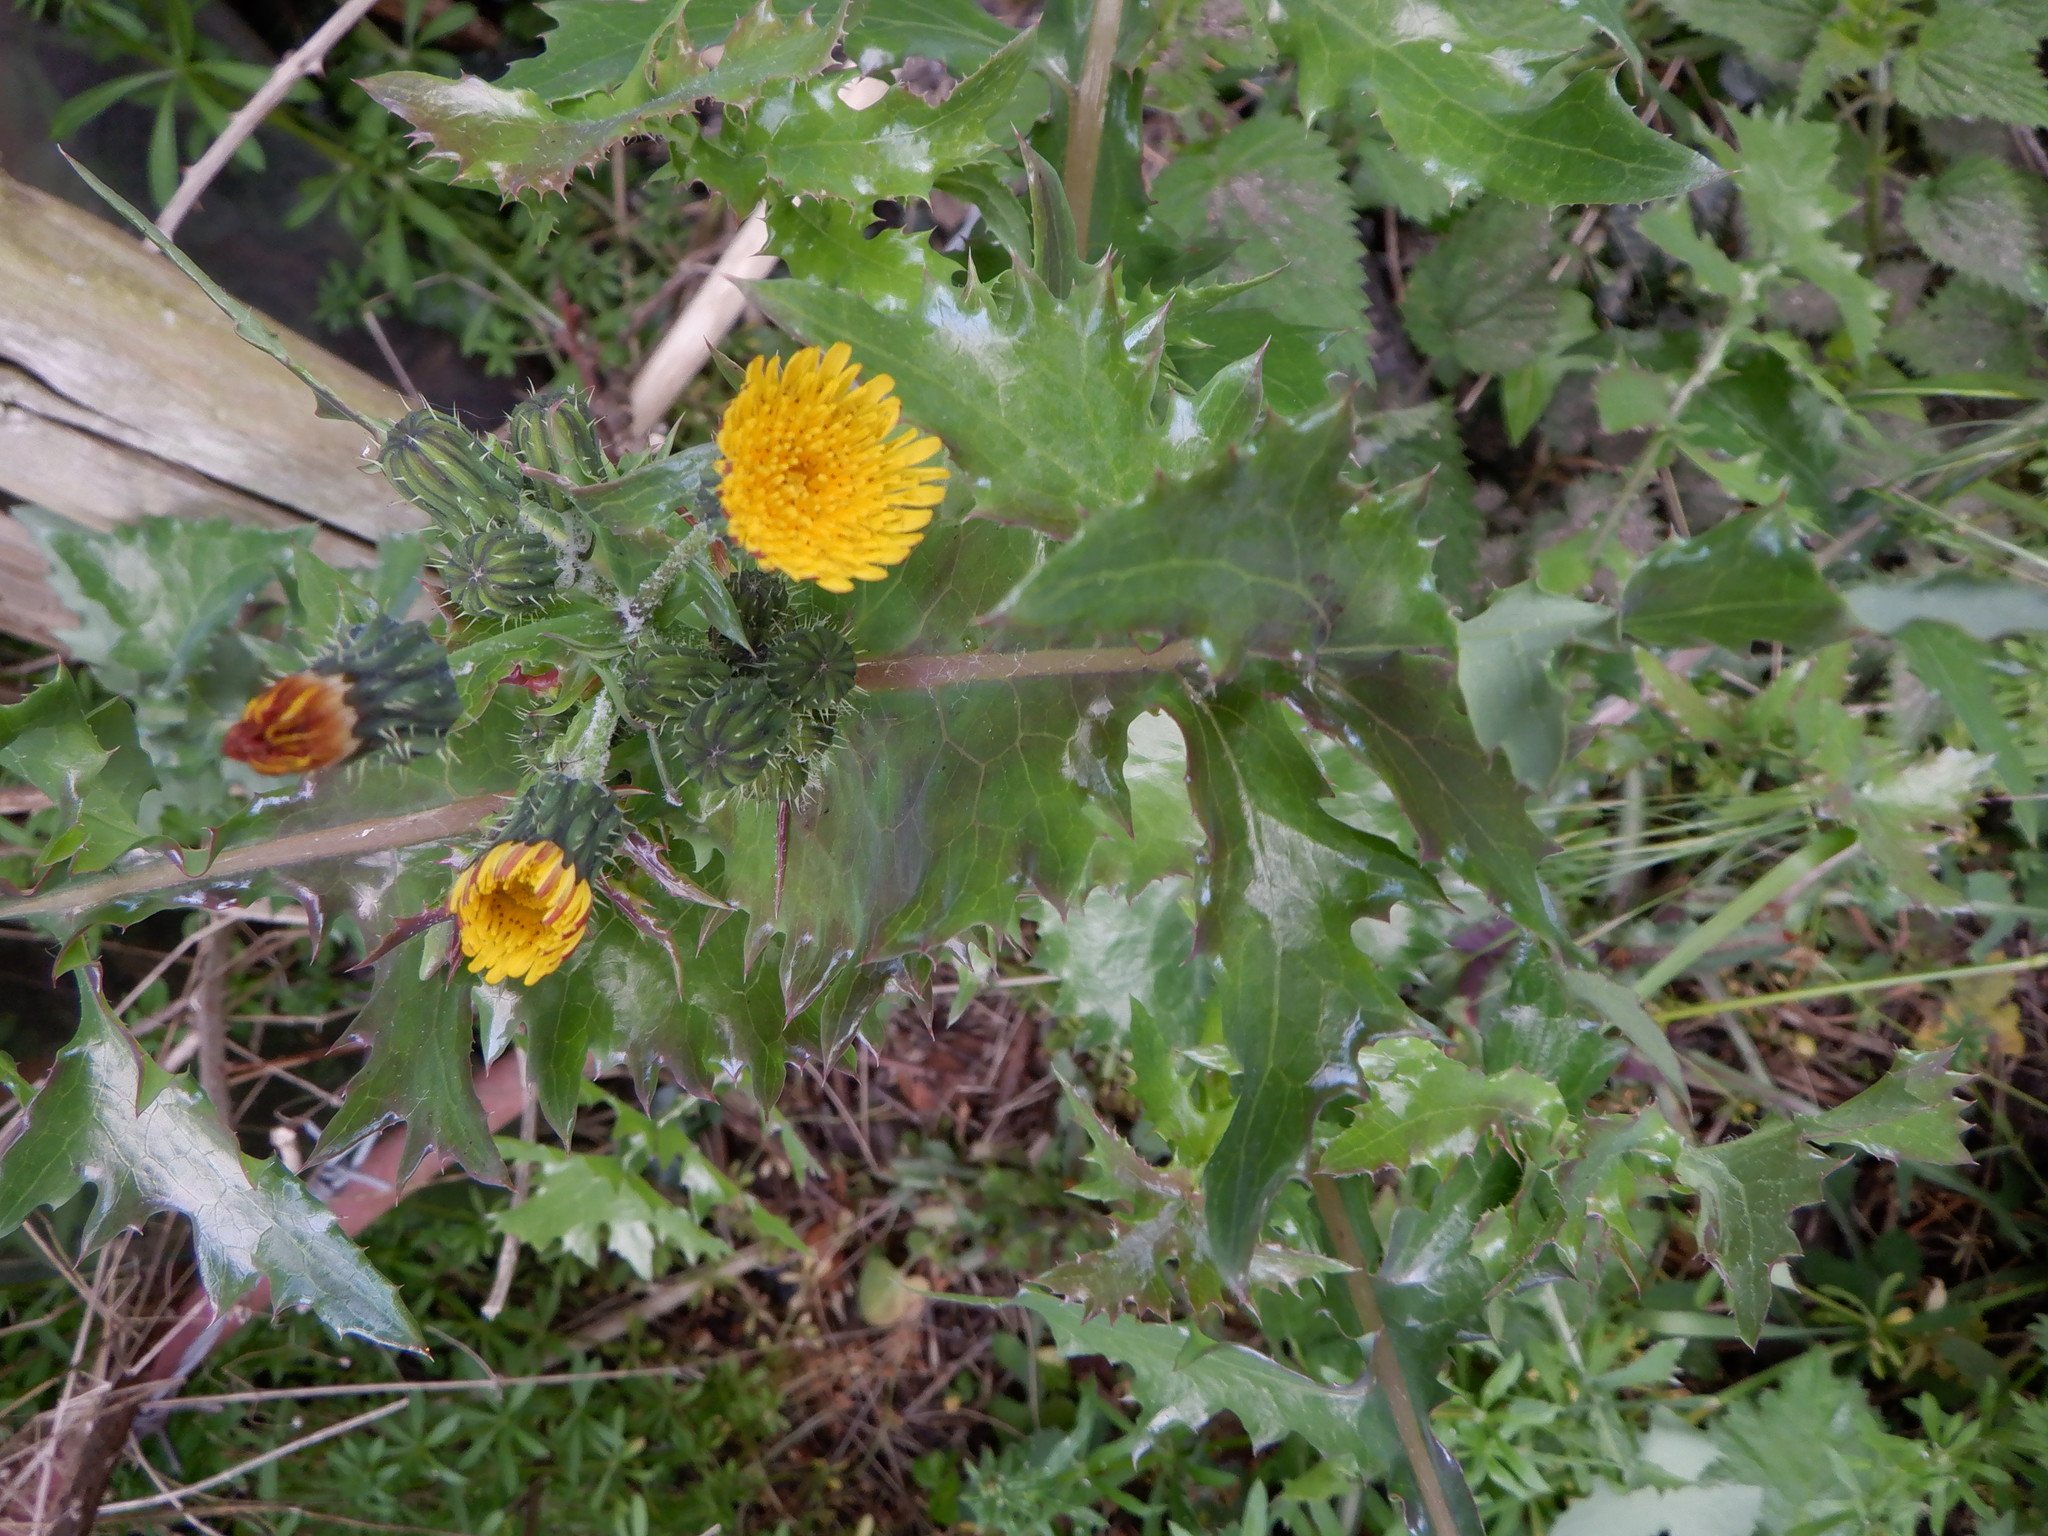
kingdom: Plantae
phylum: Tracheophyta
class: Magnoliopsida
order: Asterales
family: Asteraceae
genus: Sonchus
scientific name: Sonchus asper
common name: Prickly sow-thistle
